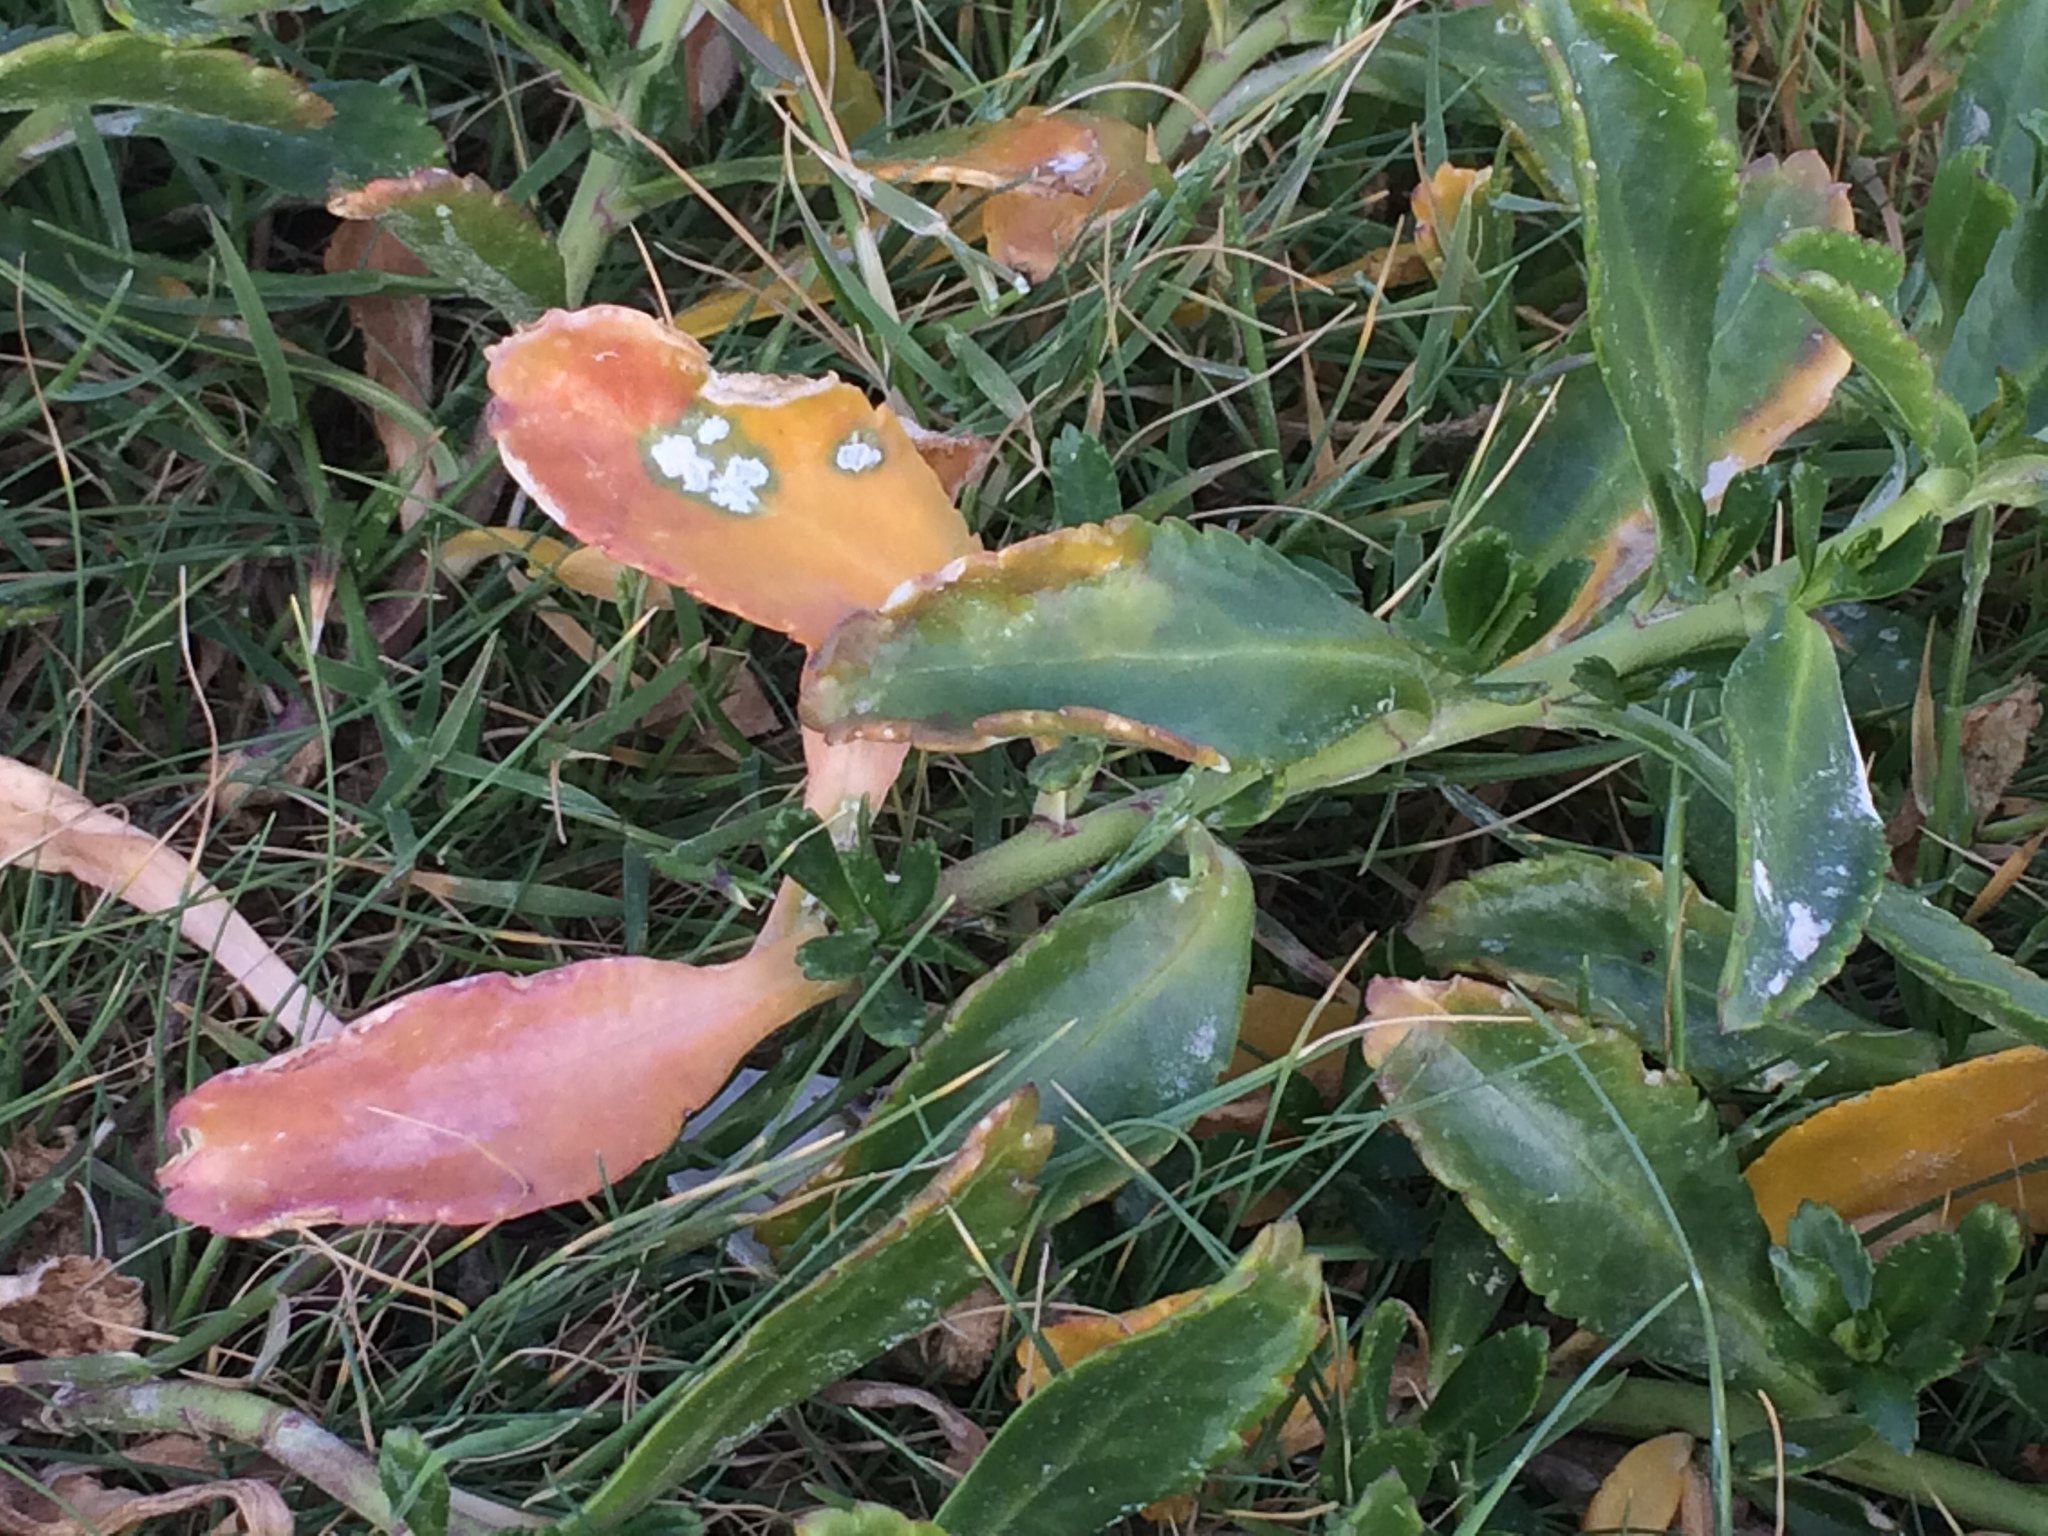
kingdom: Plantae
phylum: Tracheophyta
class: Magnoliopsida
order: Brassicales
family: Brassicaceae
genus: Lepidium
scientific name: Lepidium crassum
